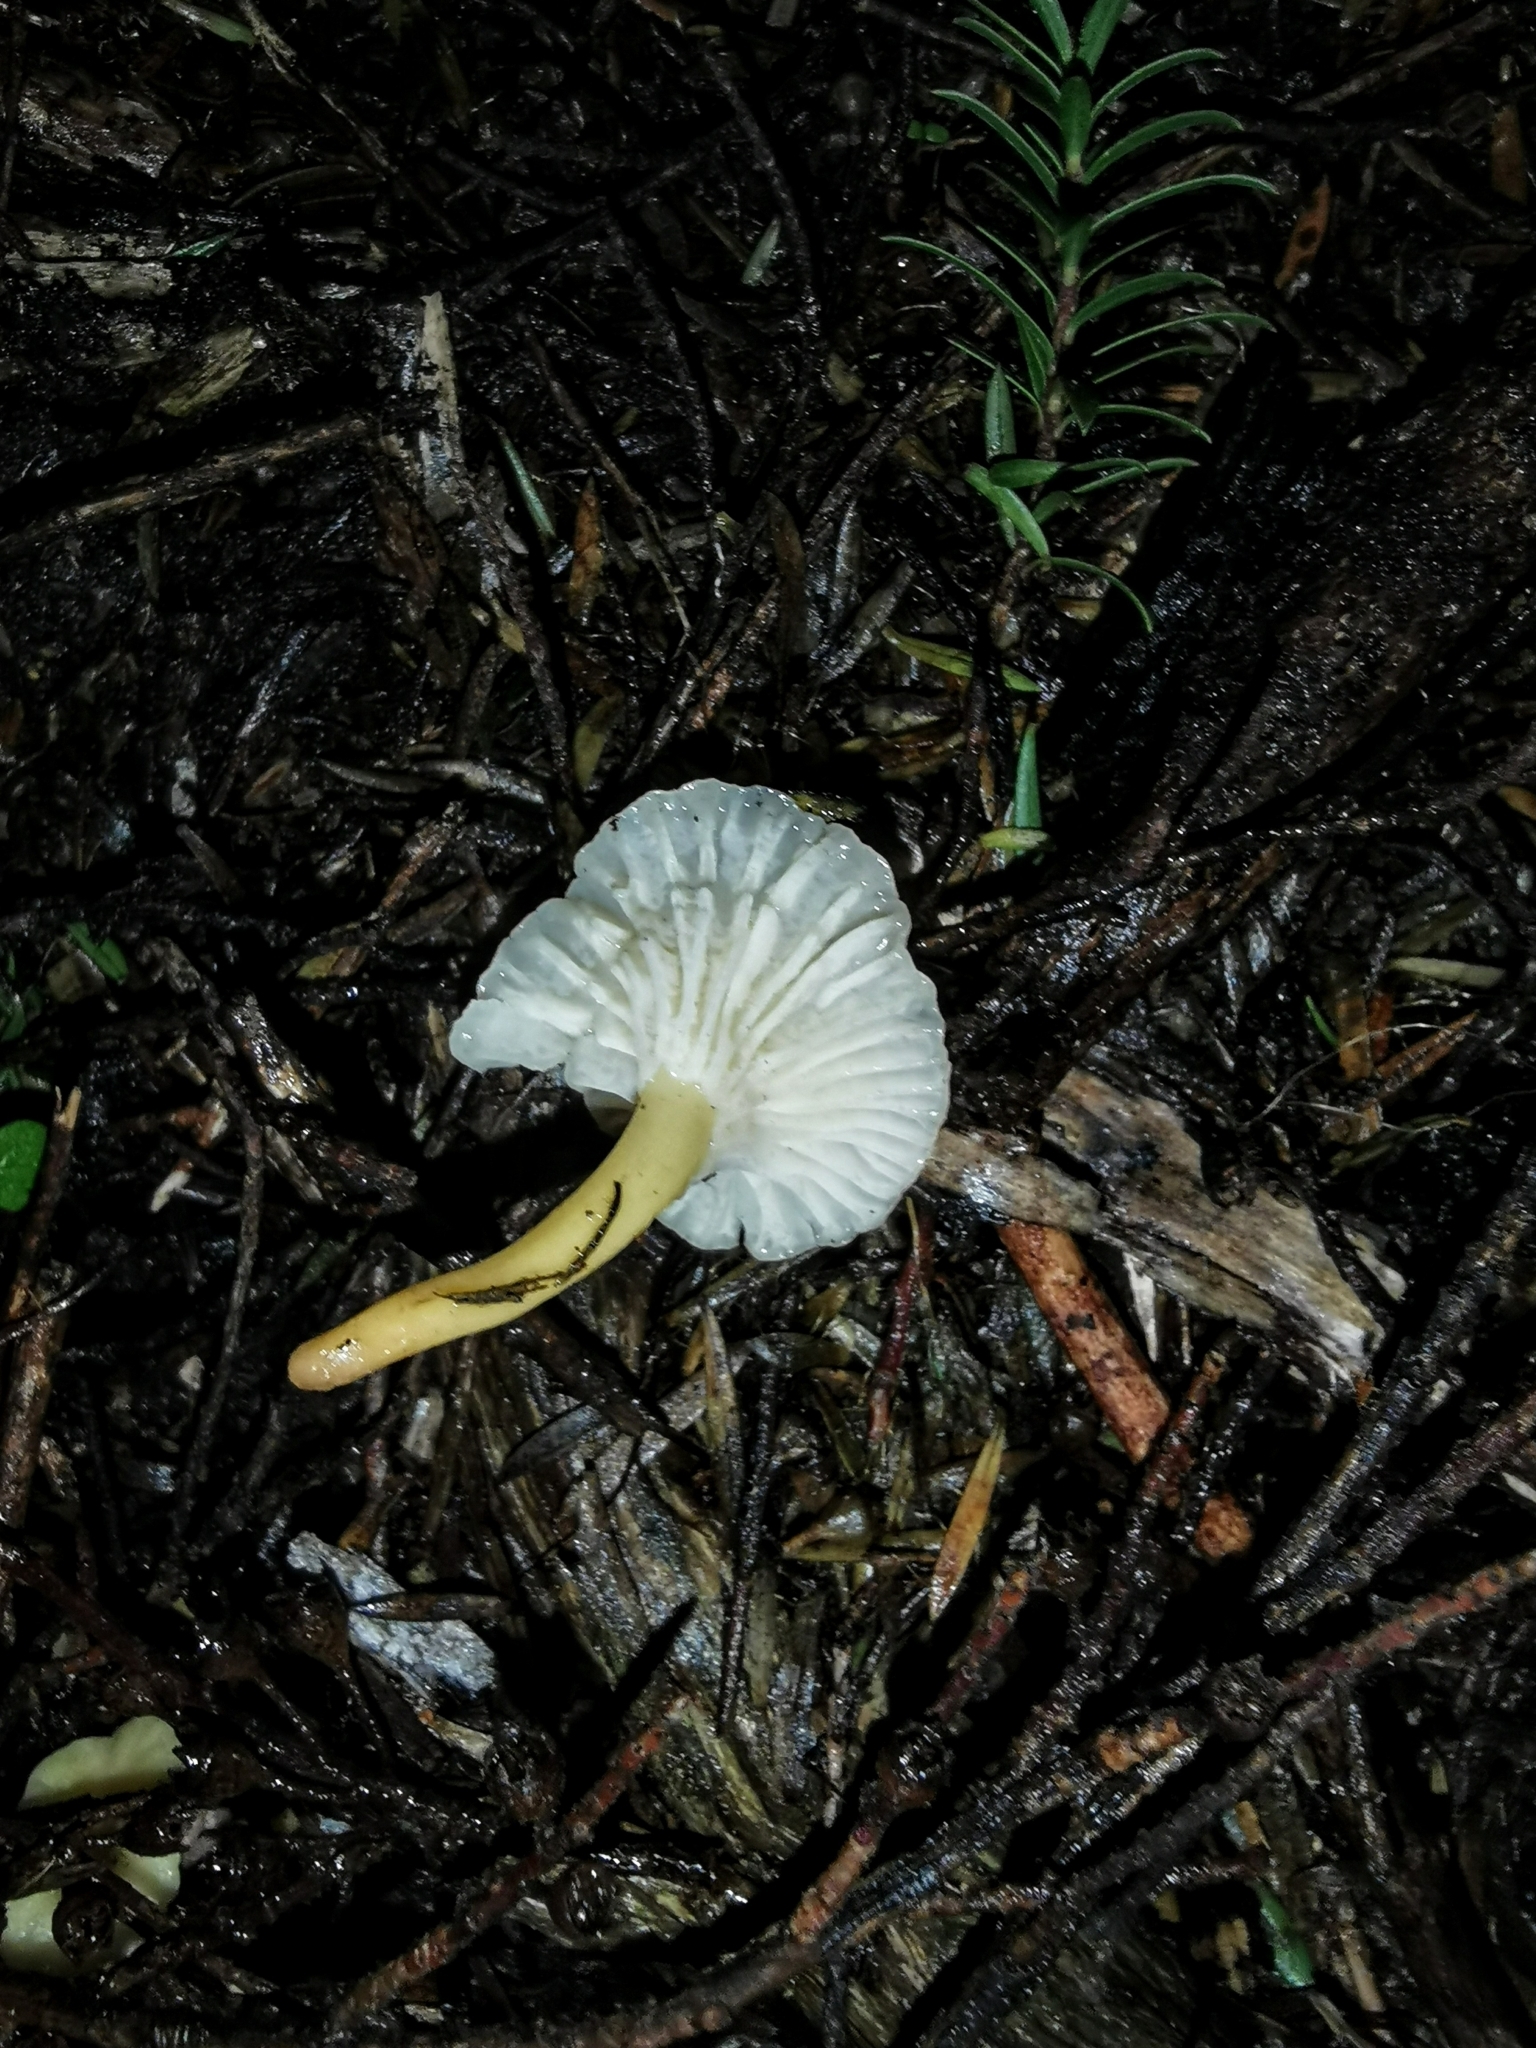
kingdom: Fungi
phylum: Basidiomycota
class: Agaricomycetes
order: Cantharellales
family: Hydnaceae
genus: Cantharellus
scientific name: Cantharellus wellingtonensis
